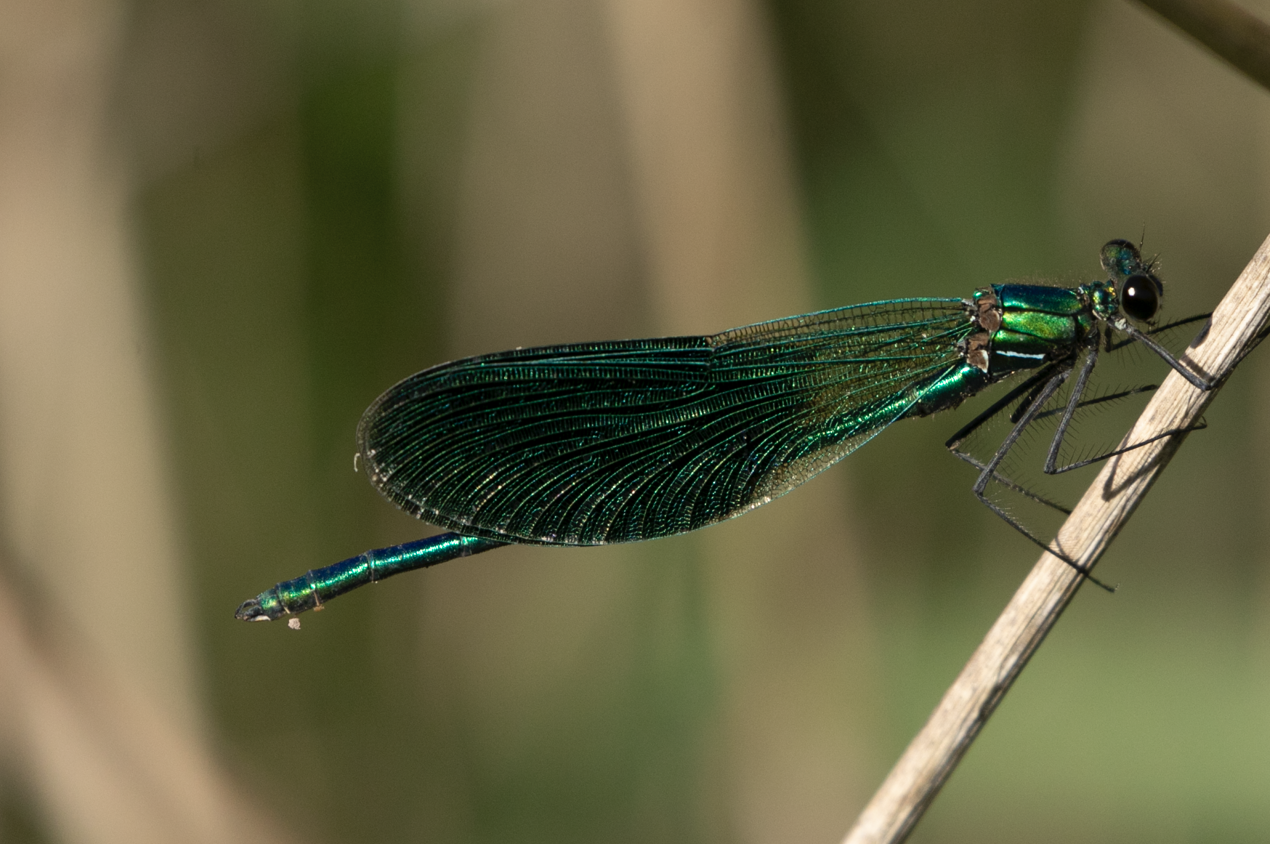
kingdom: Animalia
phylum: Arthropoda
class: Insecta
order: Odonata
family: Calopterygidae
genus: Calopteryx
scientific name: Calopteryx splendens
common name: Banded demoiselle
